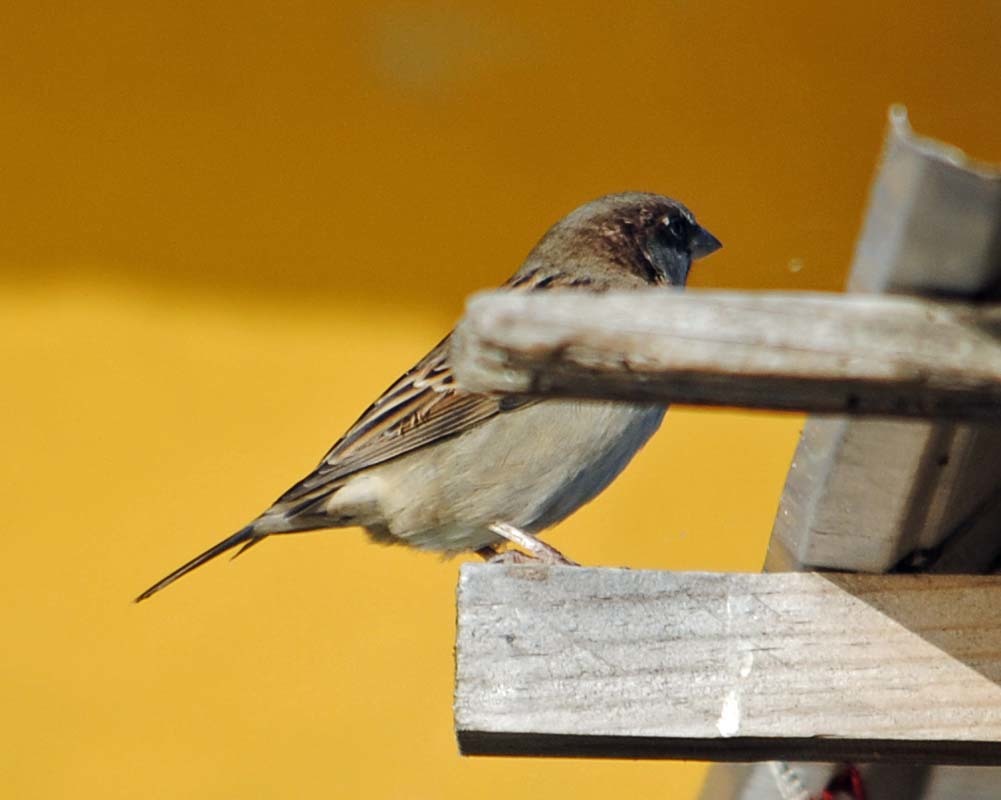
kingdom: Animalia
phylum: Chordata
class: Aves
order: Passeriformes
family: Passeridae
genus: Passer
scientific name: Passer domesticus
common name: House sparrow
